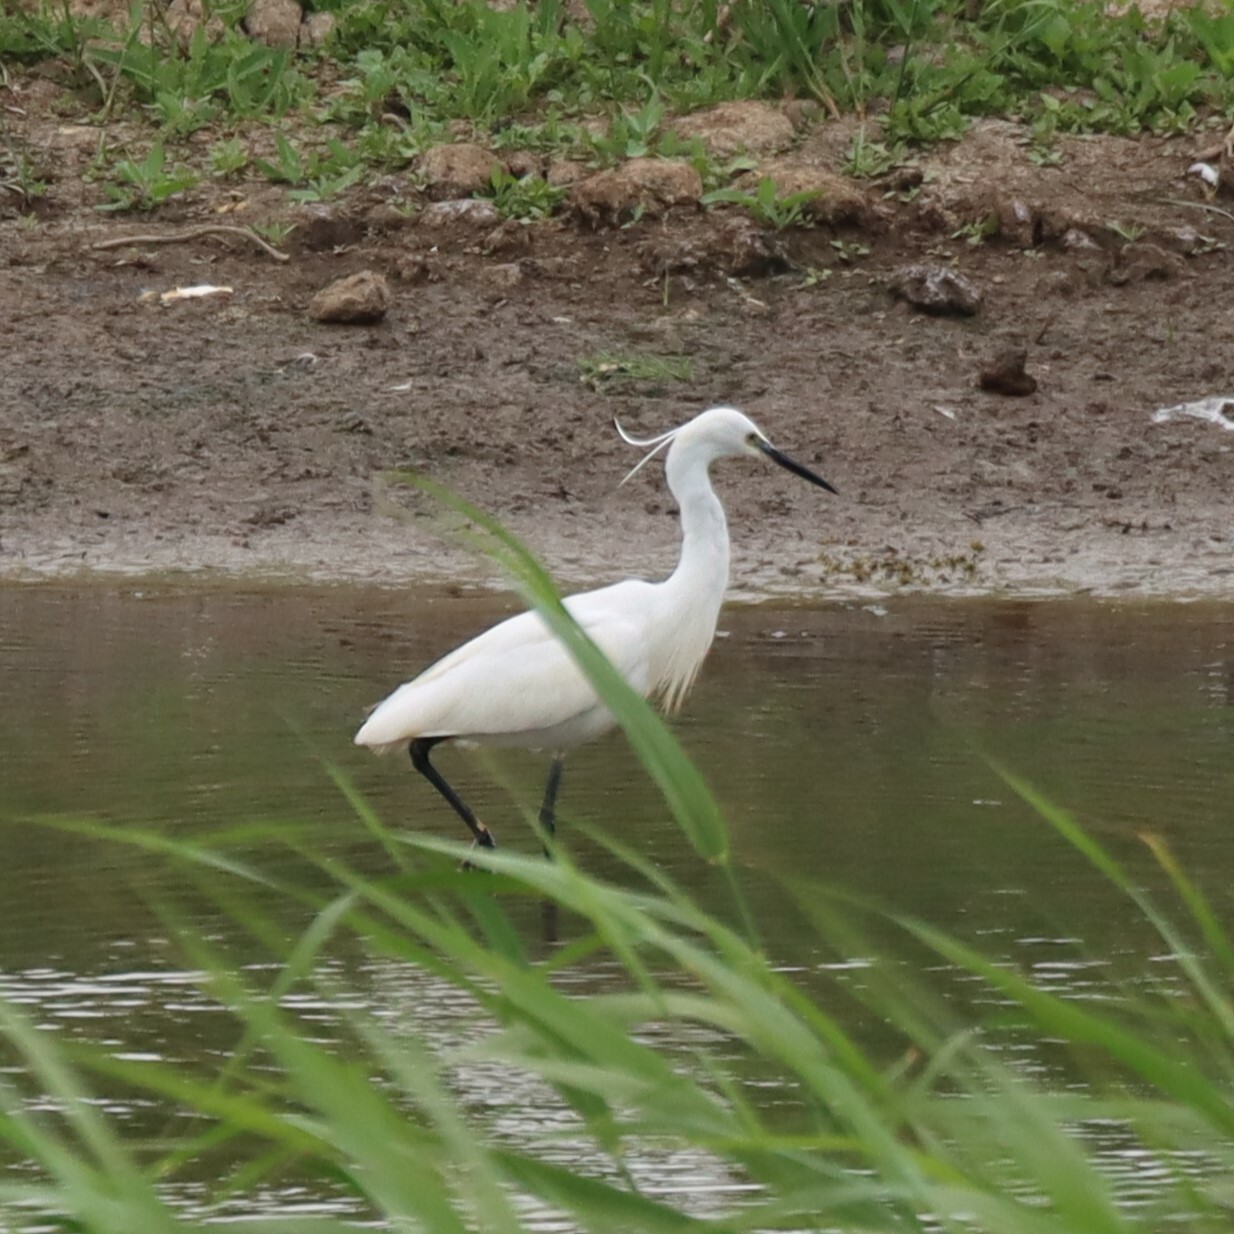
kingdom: Animalia
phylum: Chordata
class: Aves
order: Pelecaniformes
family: Ardeidae
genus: Egretta
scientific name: Egretta garzetta
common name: Little egret
